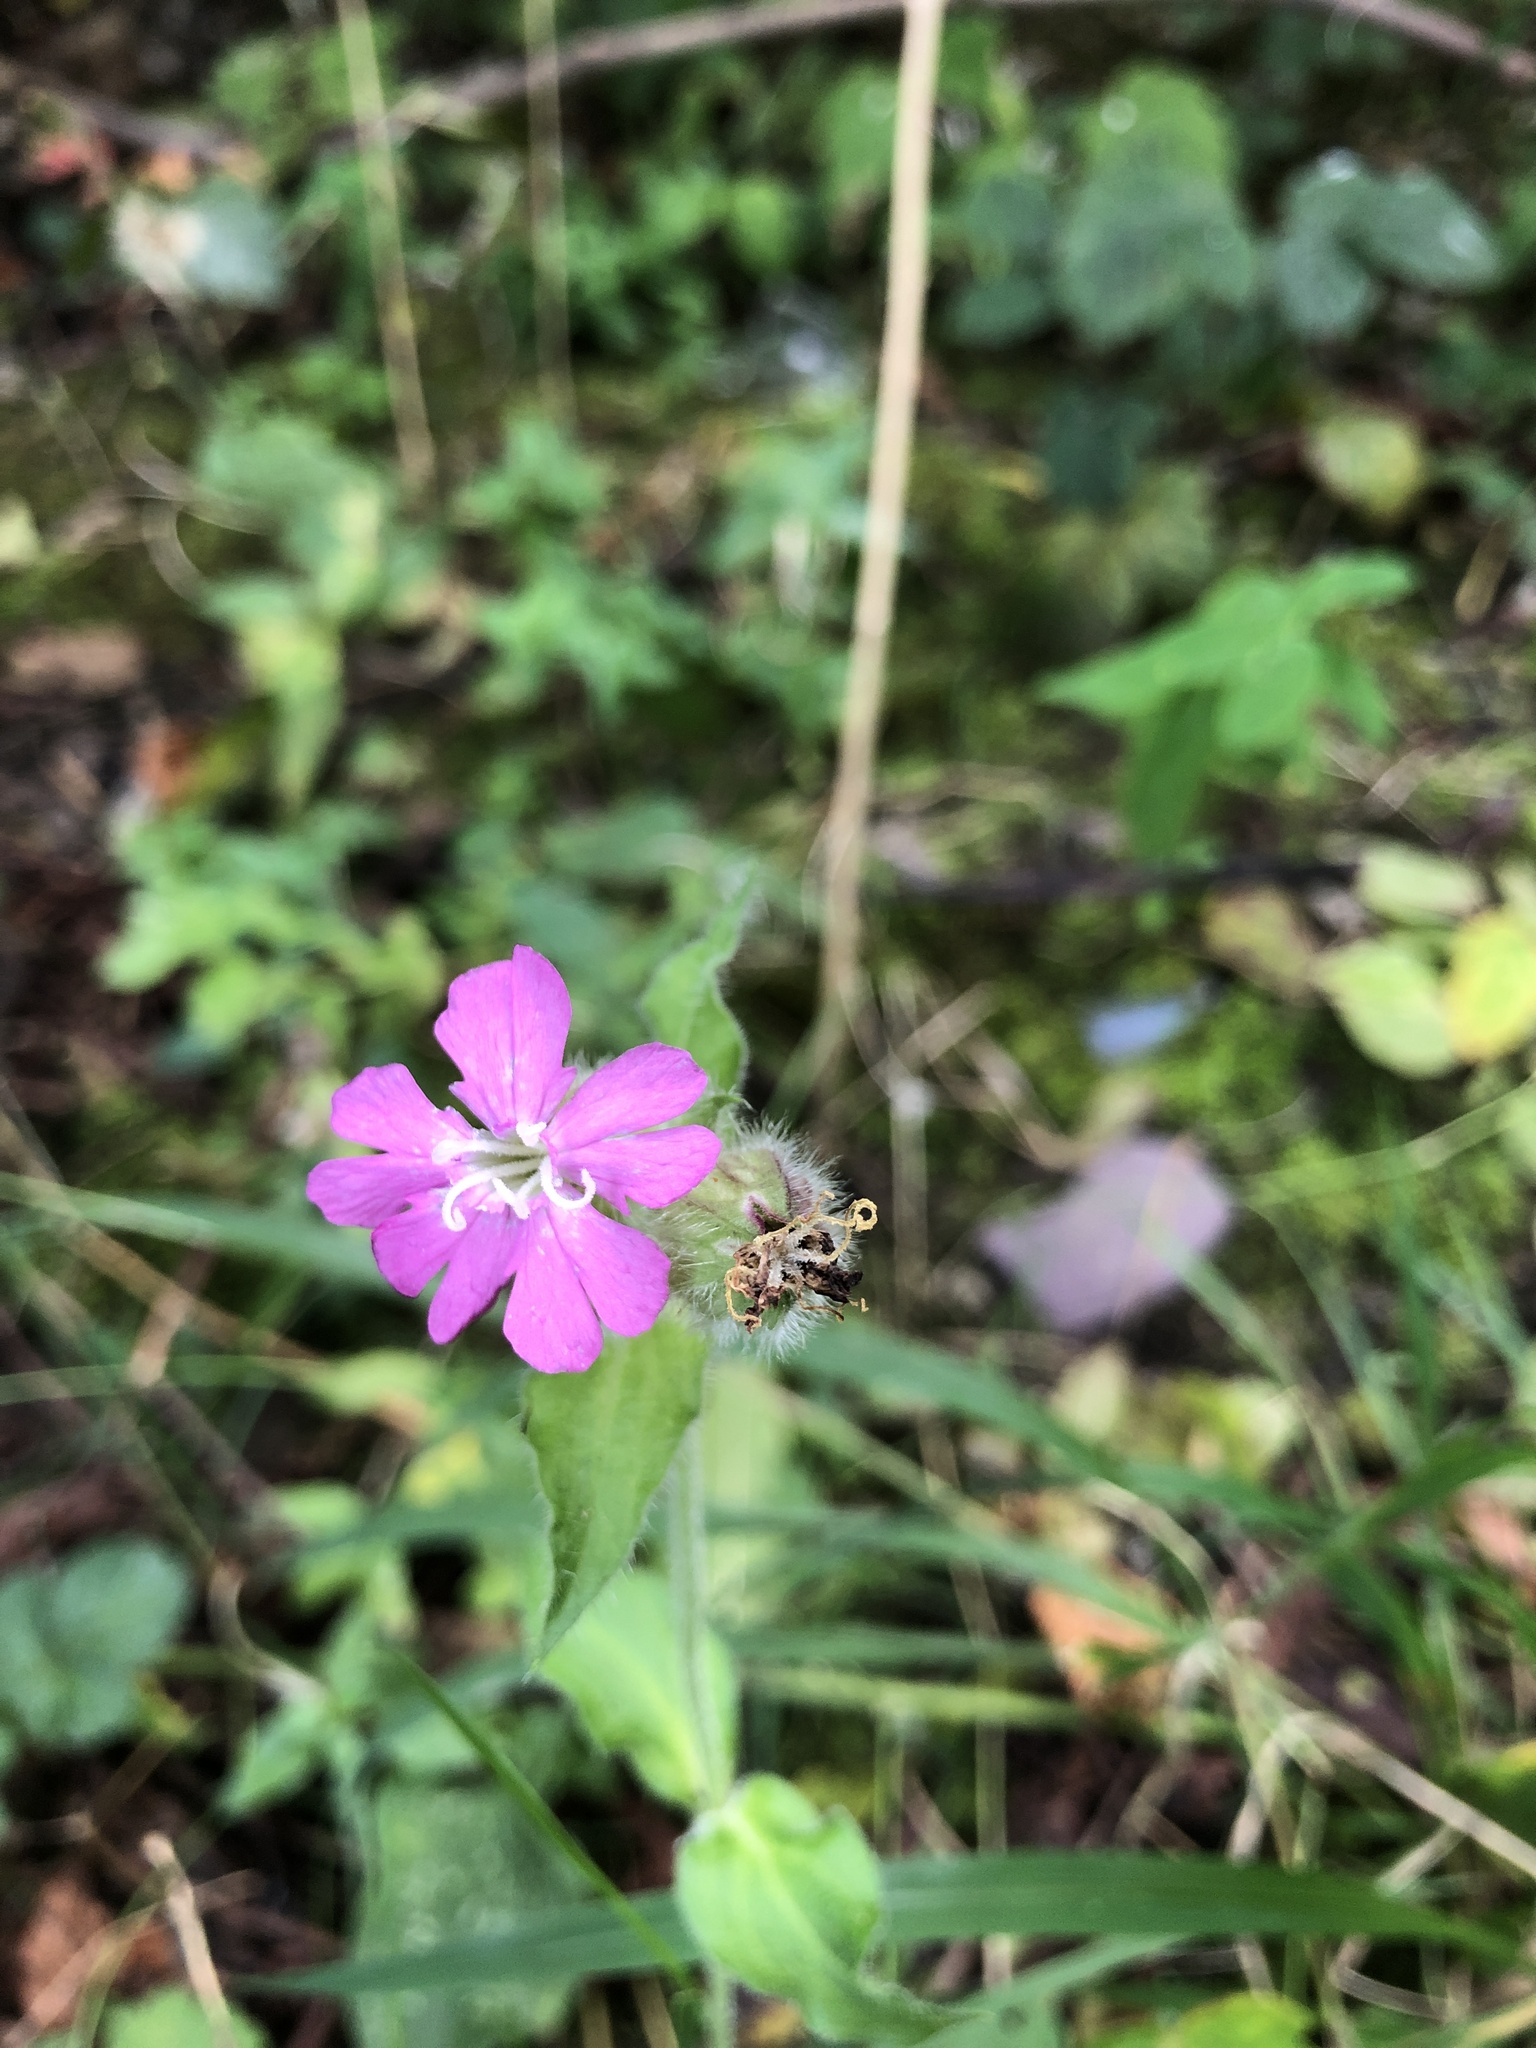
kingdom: Plantae
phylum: Tracheophyta
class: Magnoliopsida
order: Caryophyllales
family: Caryophyllaceae
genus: Silene
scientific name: Silene dioica
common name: Red campion
